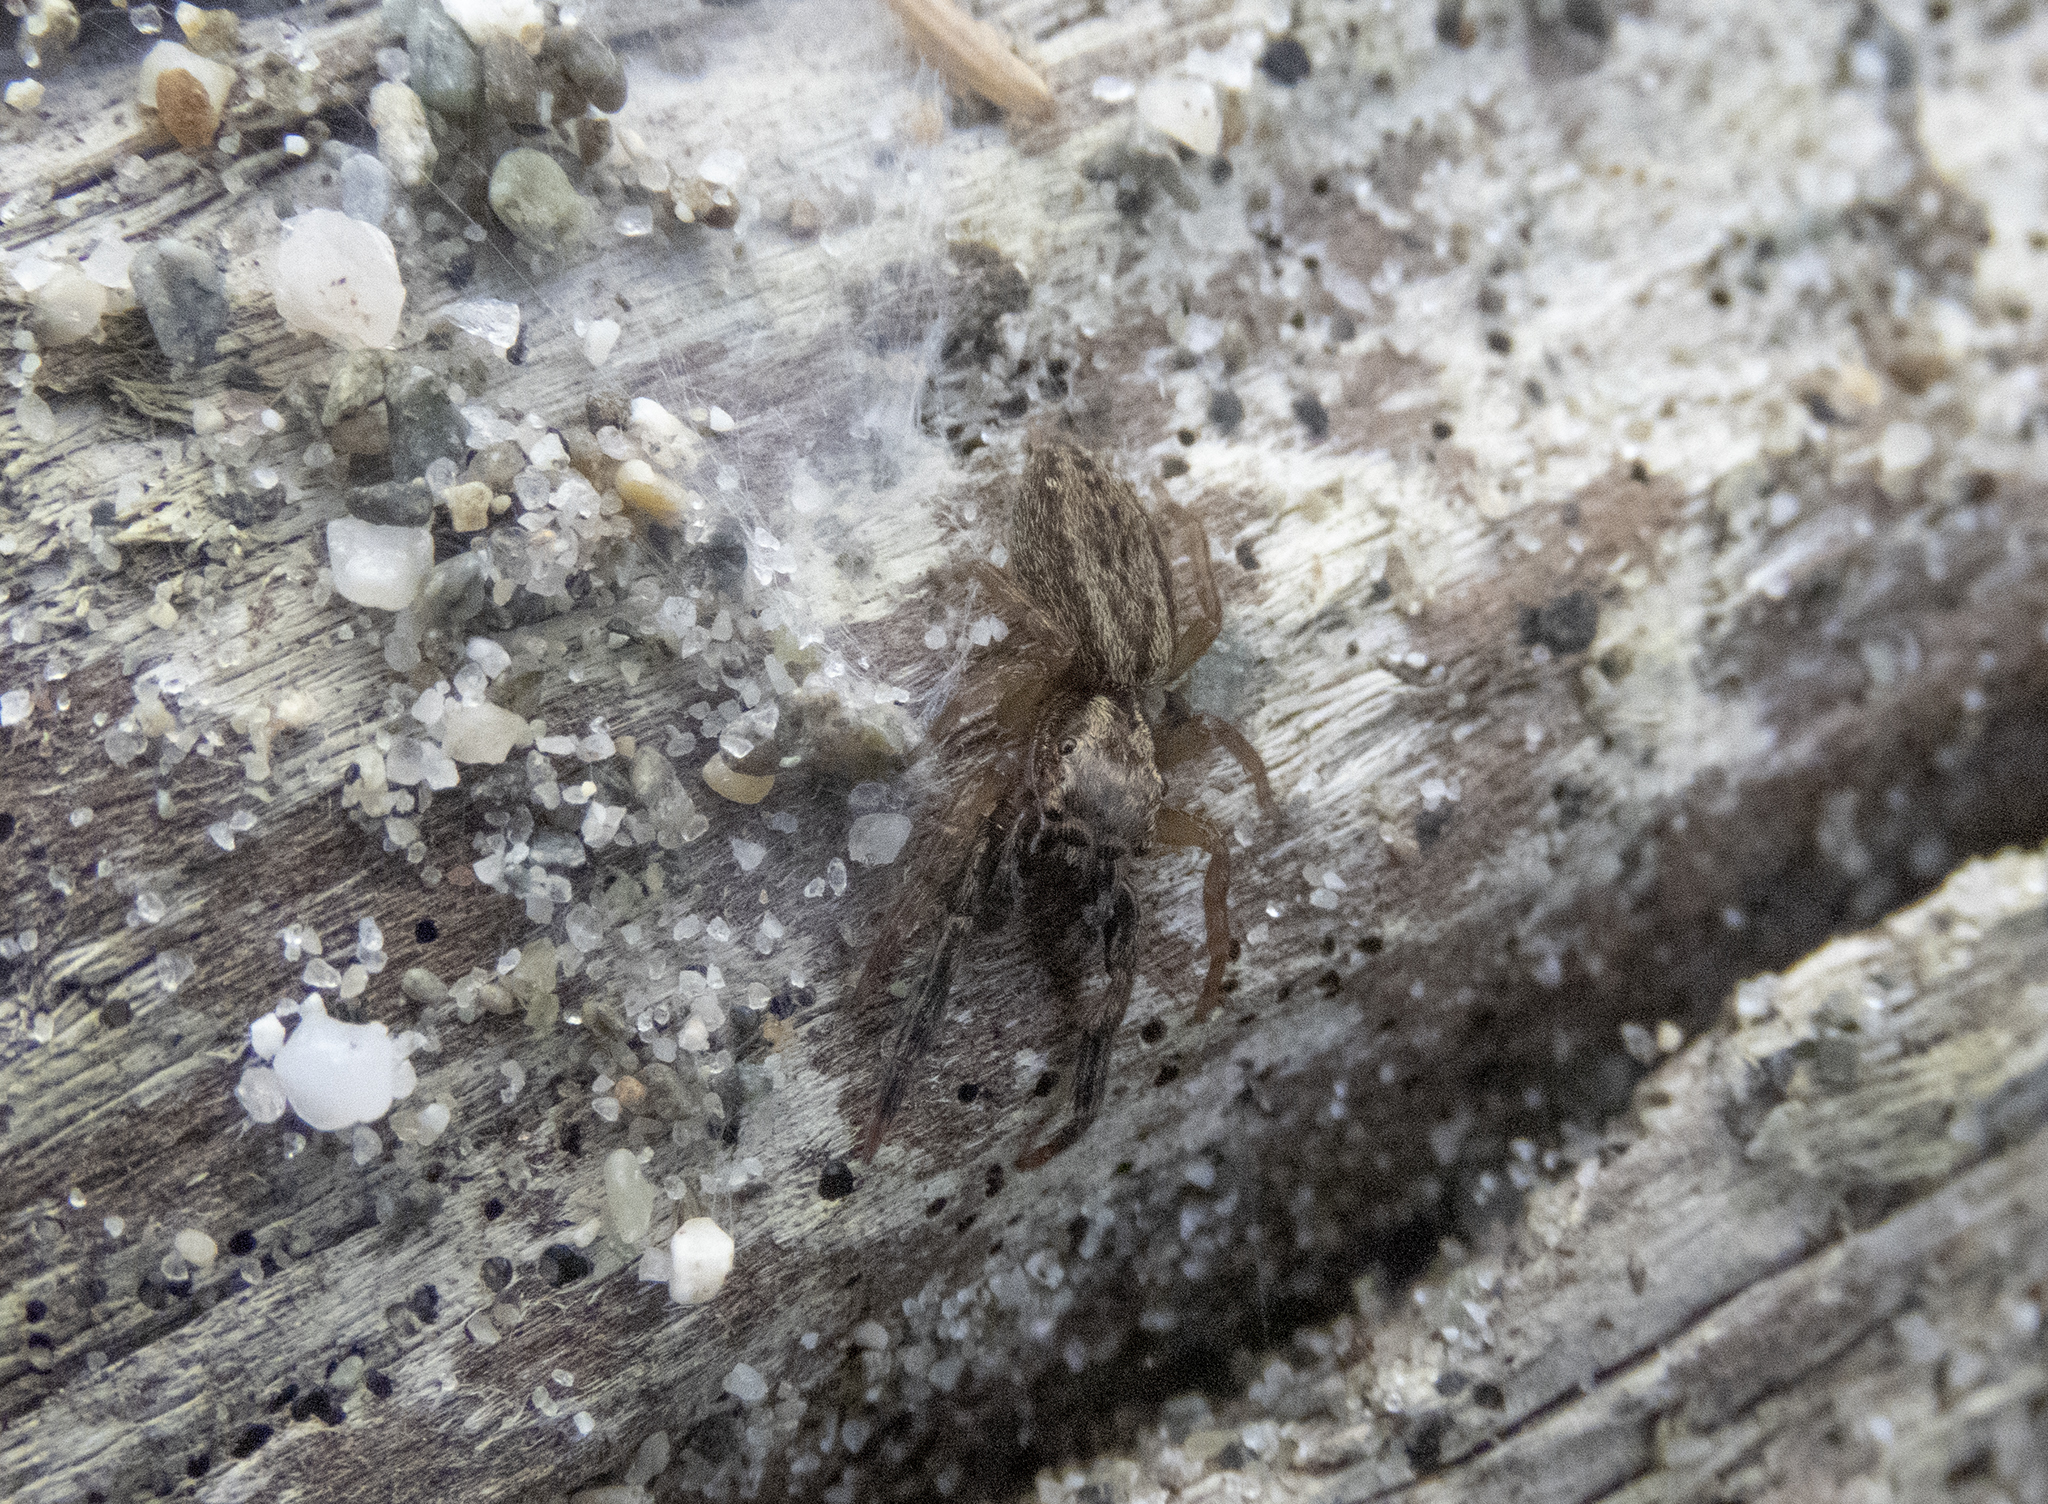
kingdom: Animalia
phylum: Arthropoda
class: Arachnida
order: Araneae
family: Salticidae
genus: Trite
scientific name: Trite auricoma
